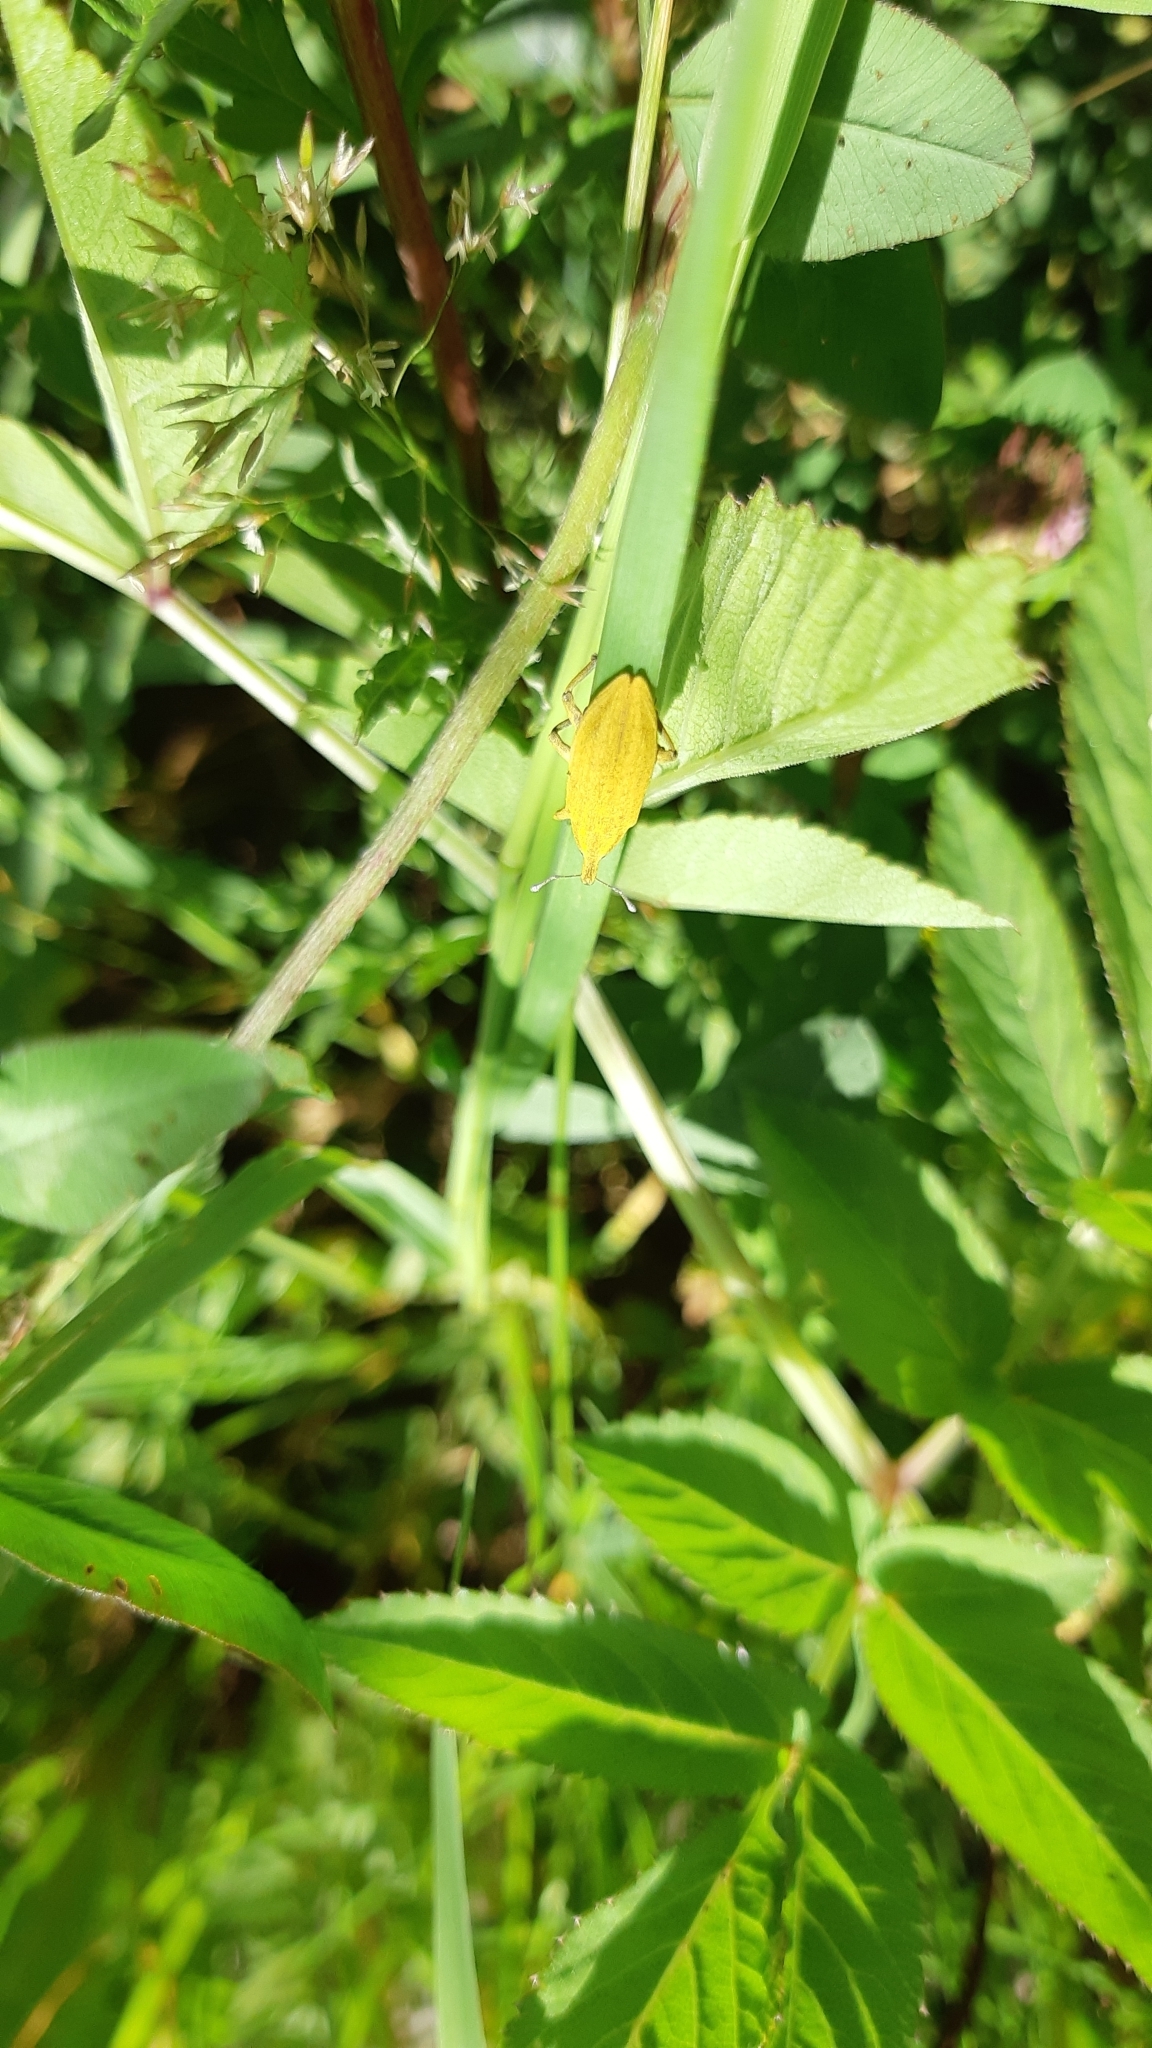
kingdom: Animalia
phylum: Arthropoda
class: Insecta
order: Coleoptera
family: Curculionidae
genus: Lixus
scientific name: Lixus iridis
